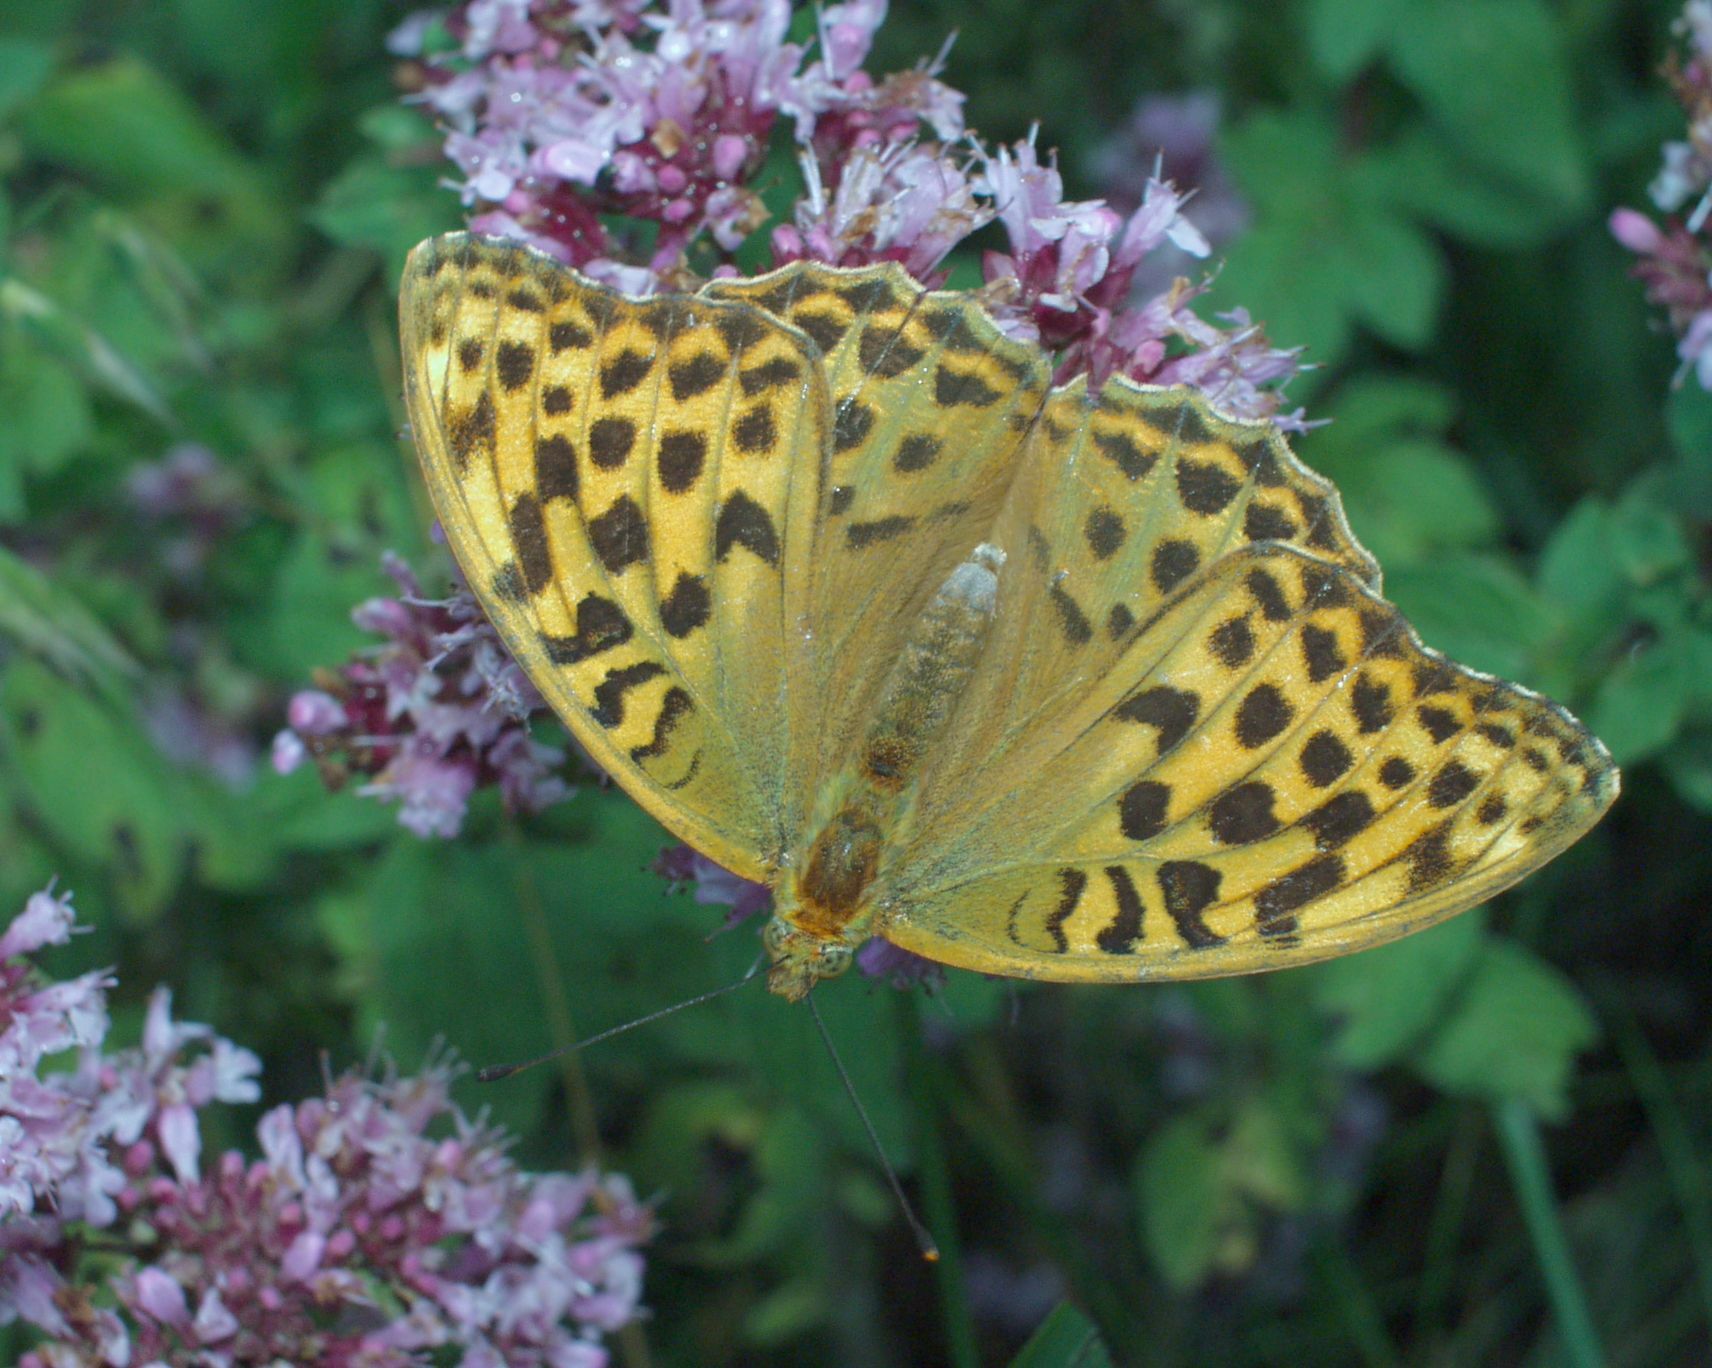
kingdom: Animalia
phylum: Arthropoda
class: Insecta
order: Lepidoptera
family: Nymphalidae
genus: Argynnis
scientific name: Argynnis paphia
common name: Silver-washed fritillary
